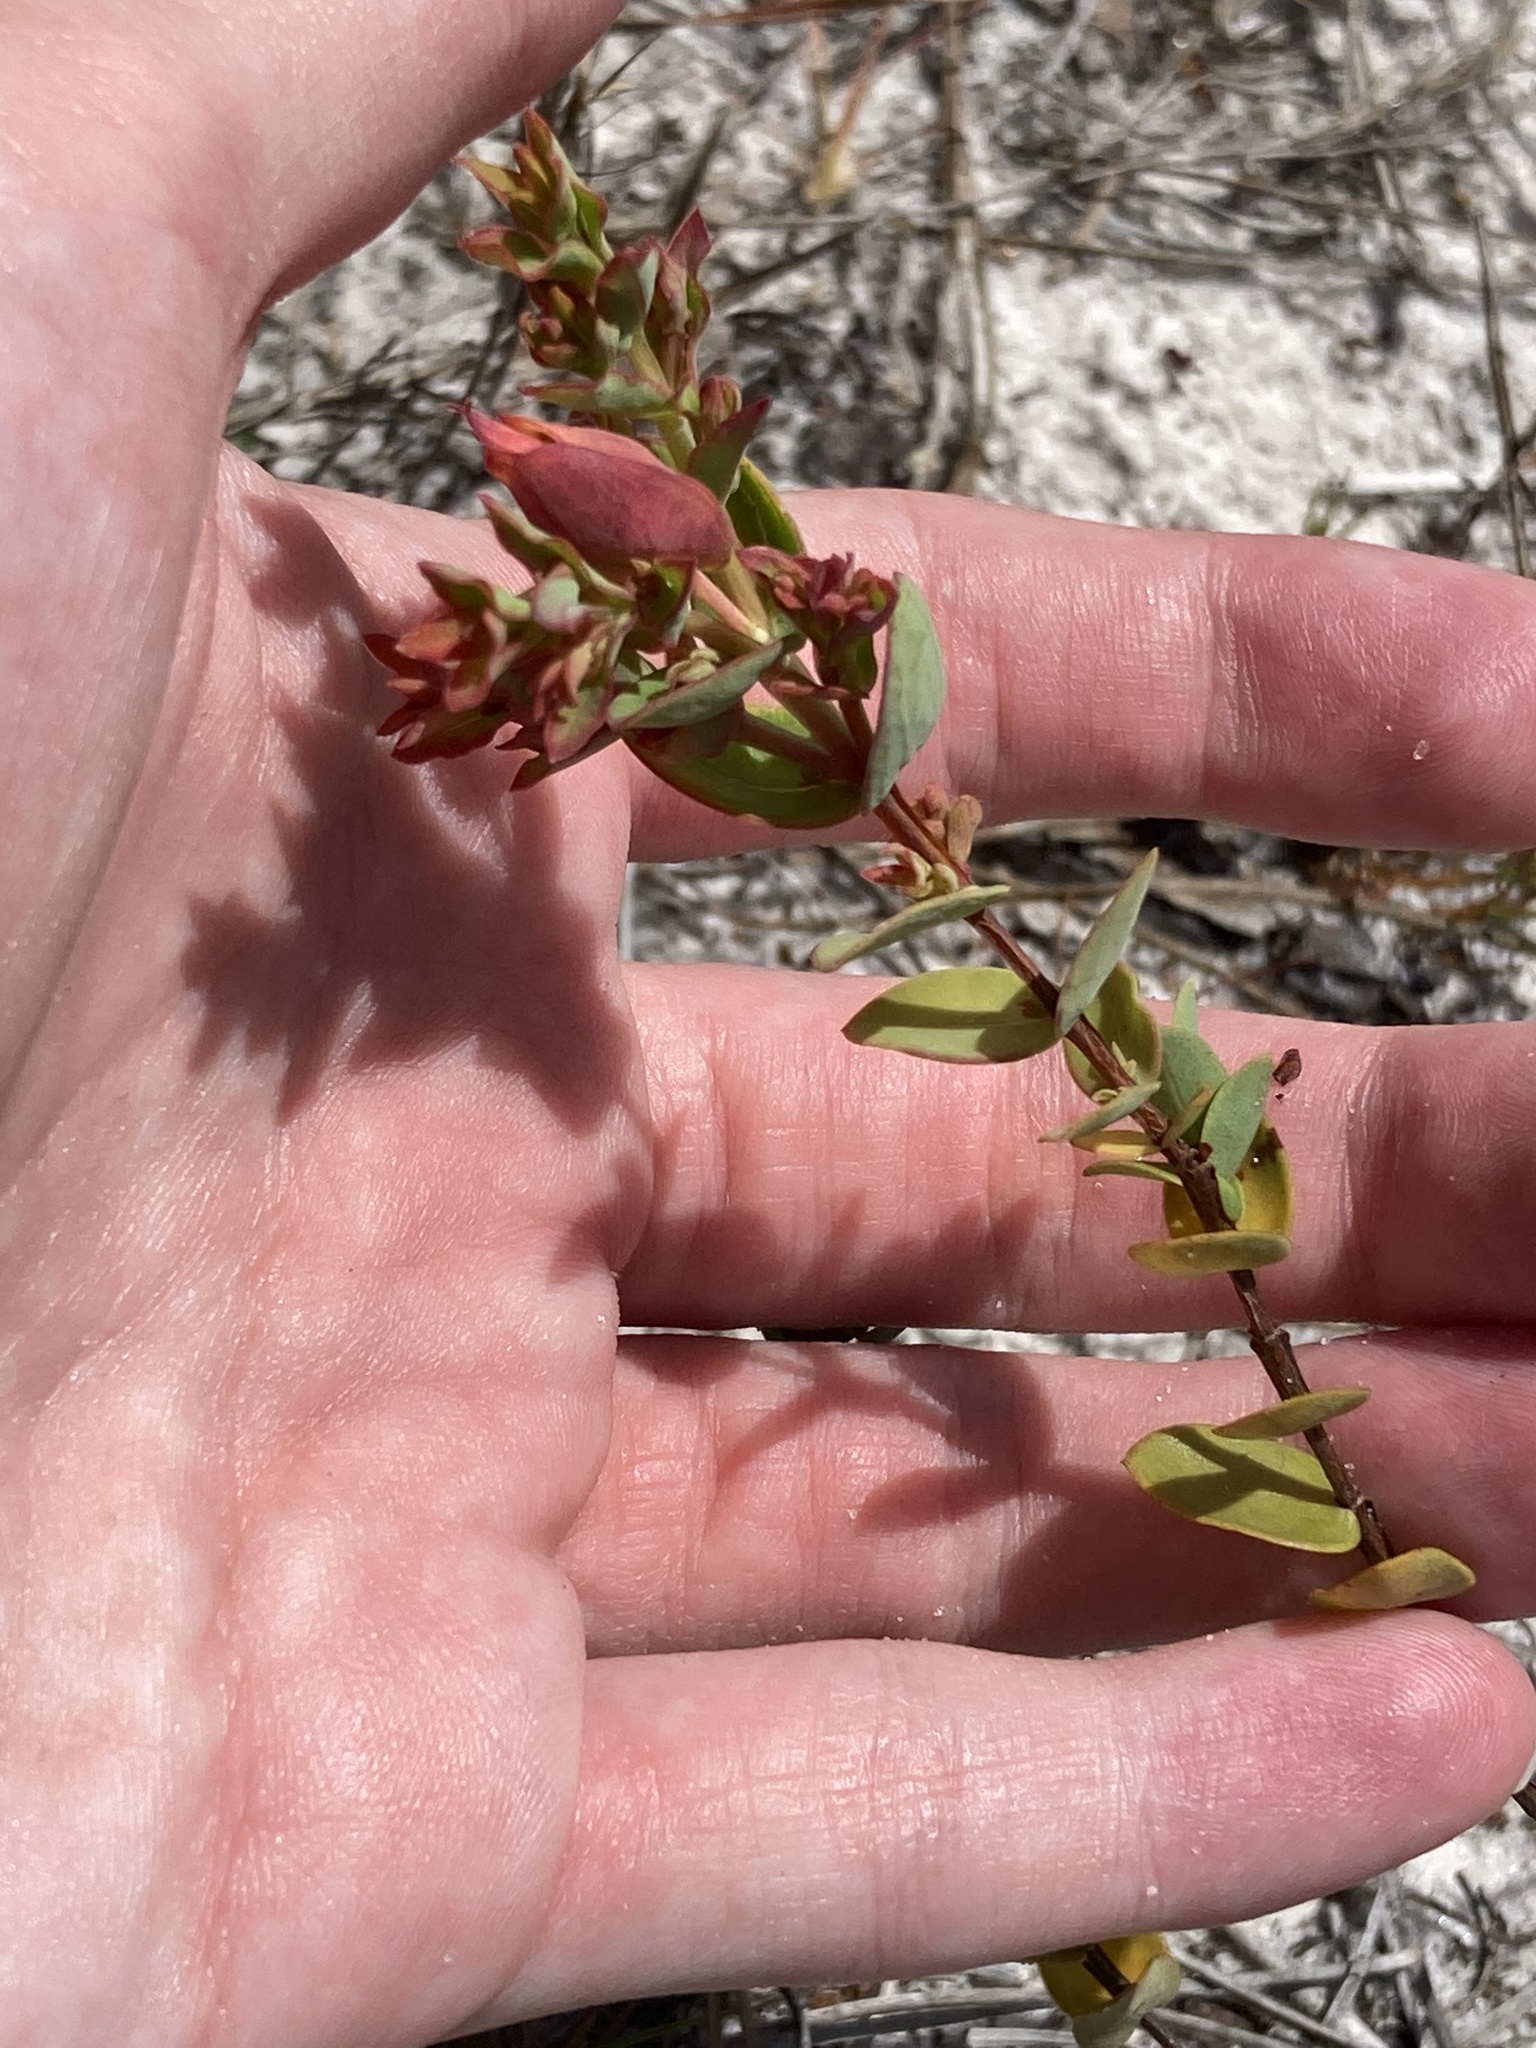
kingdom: Plantae
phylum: Tracheophyta
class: Magnoliopsida
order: Malpighiales
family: Hypericaceae
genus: Hypericum
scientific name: Hypericum tetrapetalum
